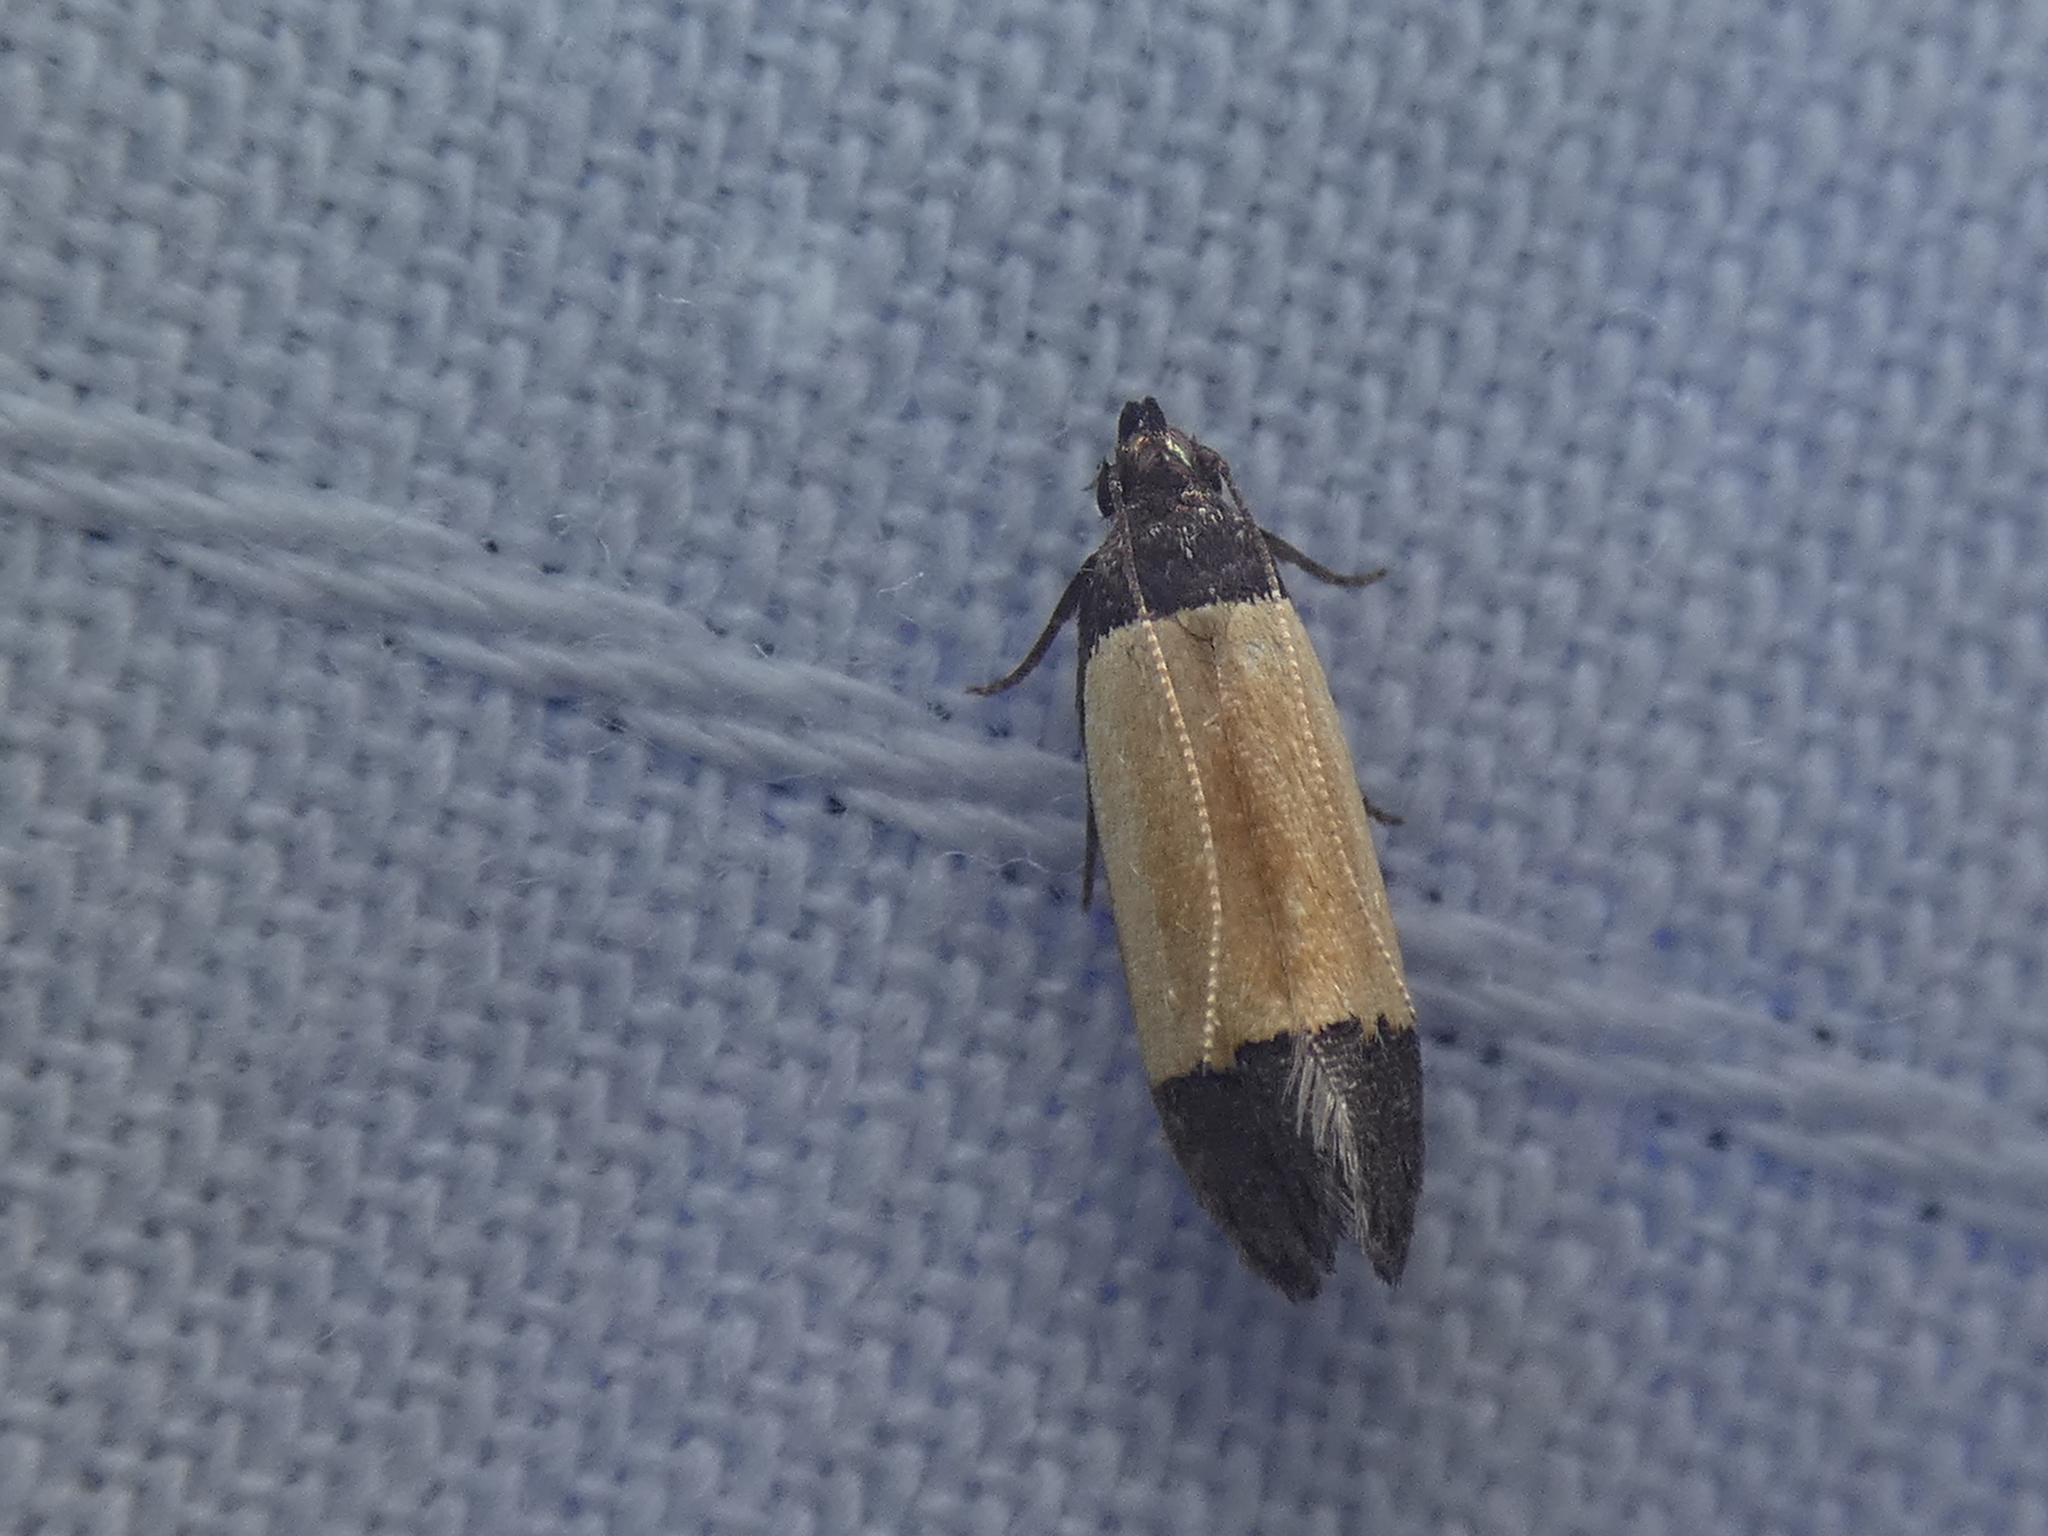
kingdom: Animalia
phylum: Arthropoda
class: Insecta
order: Lepidoptera
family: Gelechiidae
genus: Anacampsis
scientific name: Anacampsis coverdalella
